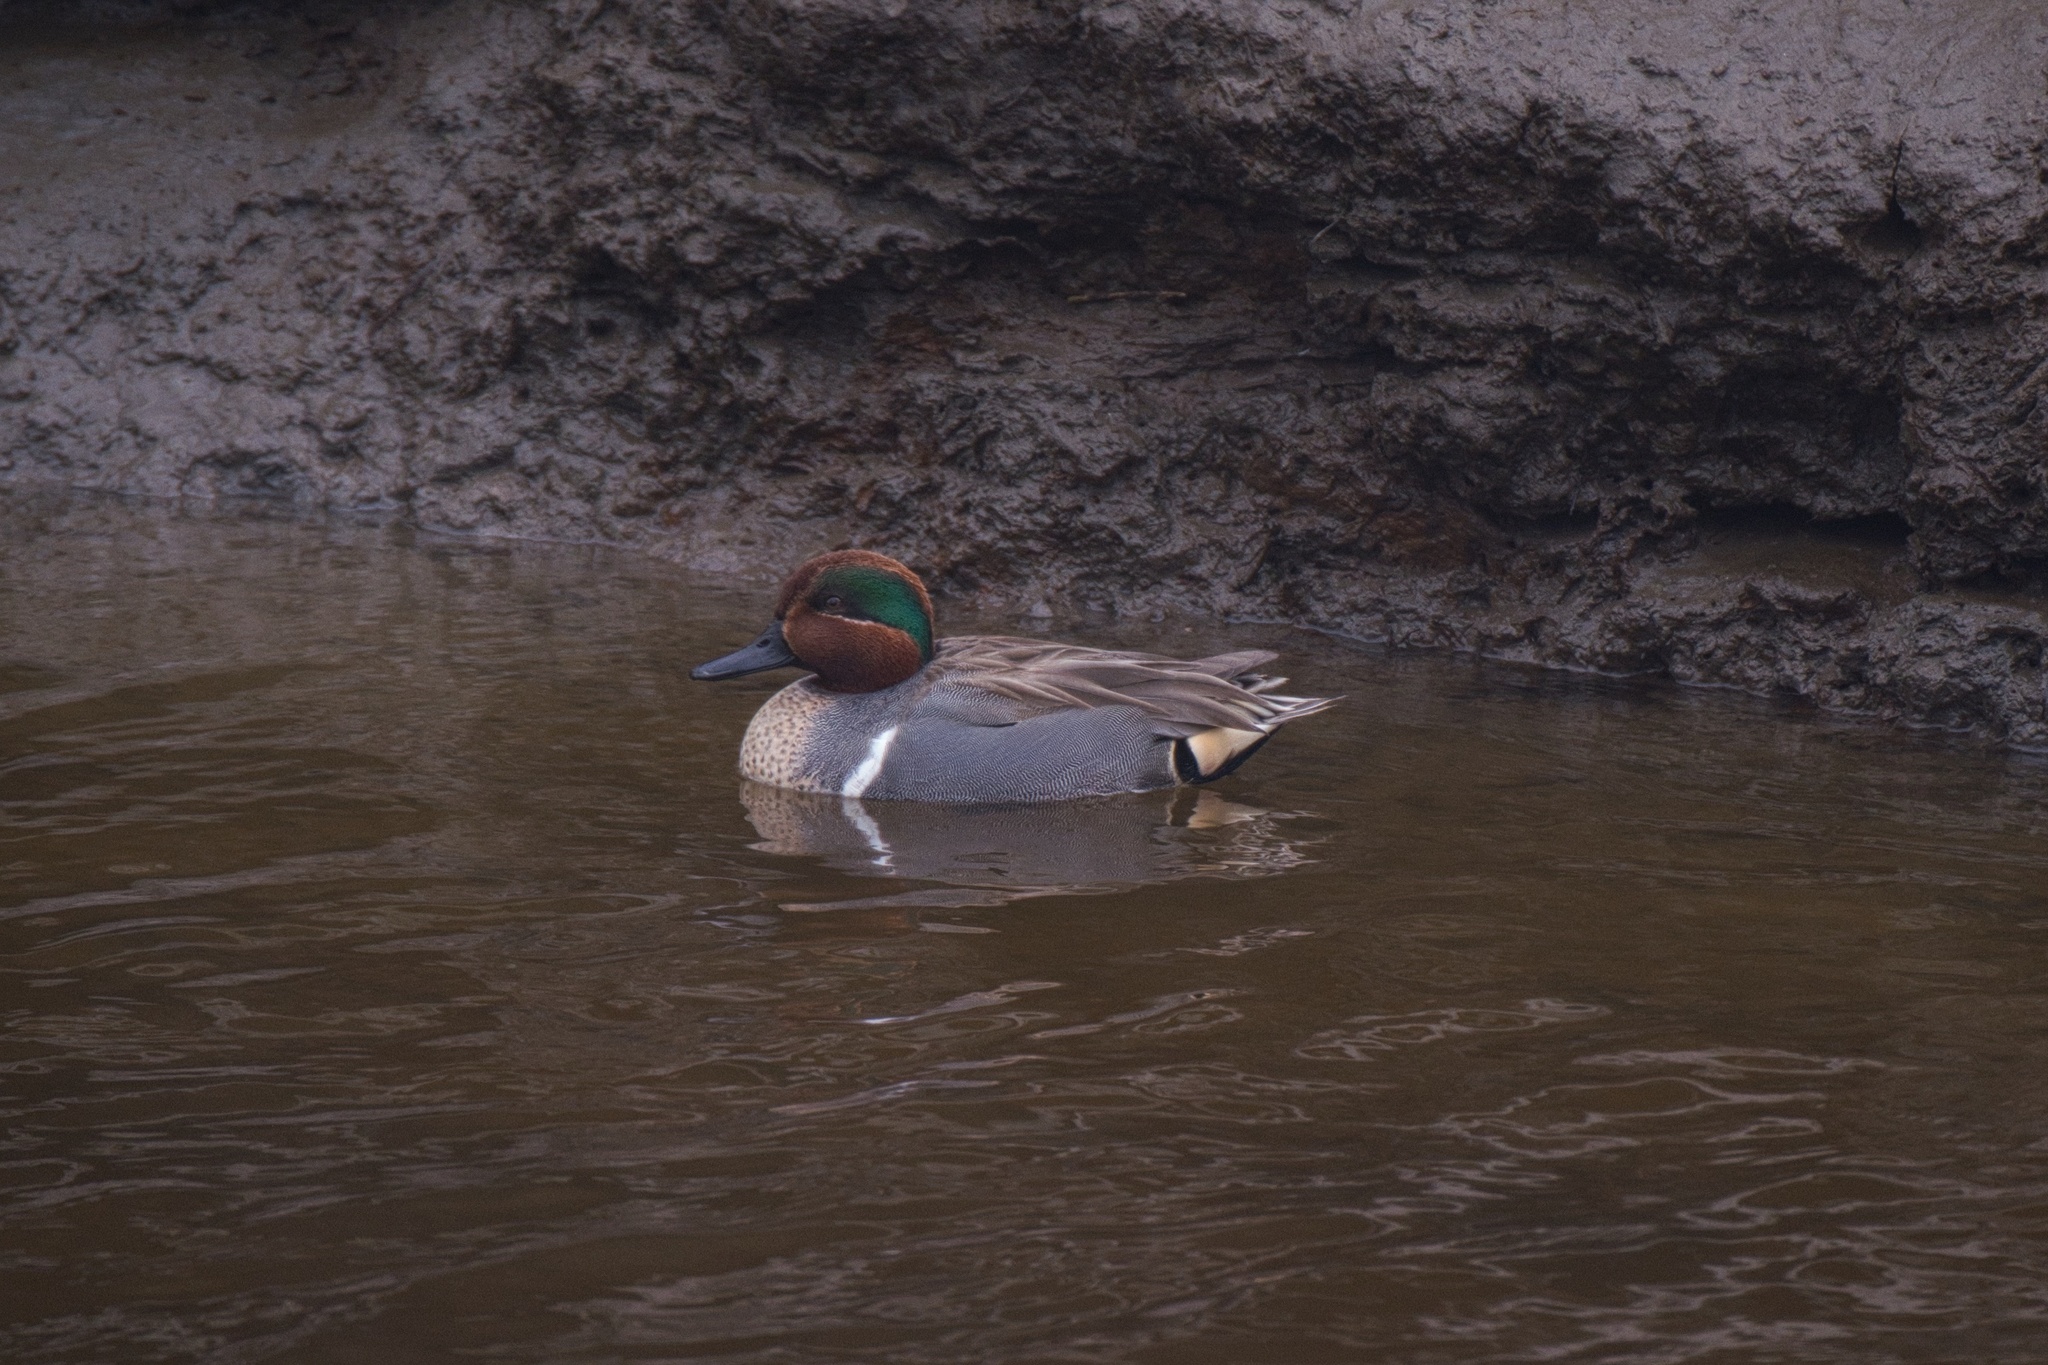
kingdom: Animalia
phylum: Chordata
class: Aves
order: Anseriformes
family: Anatidae
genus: Anas
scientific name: Anas crecca
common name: Eurasian teal
